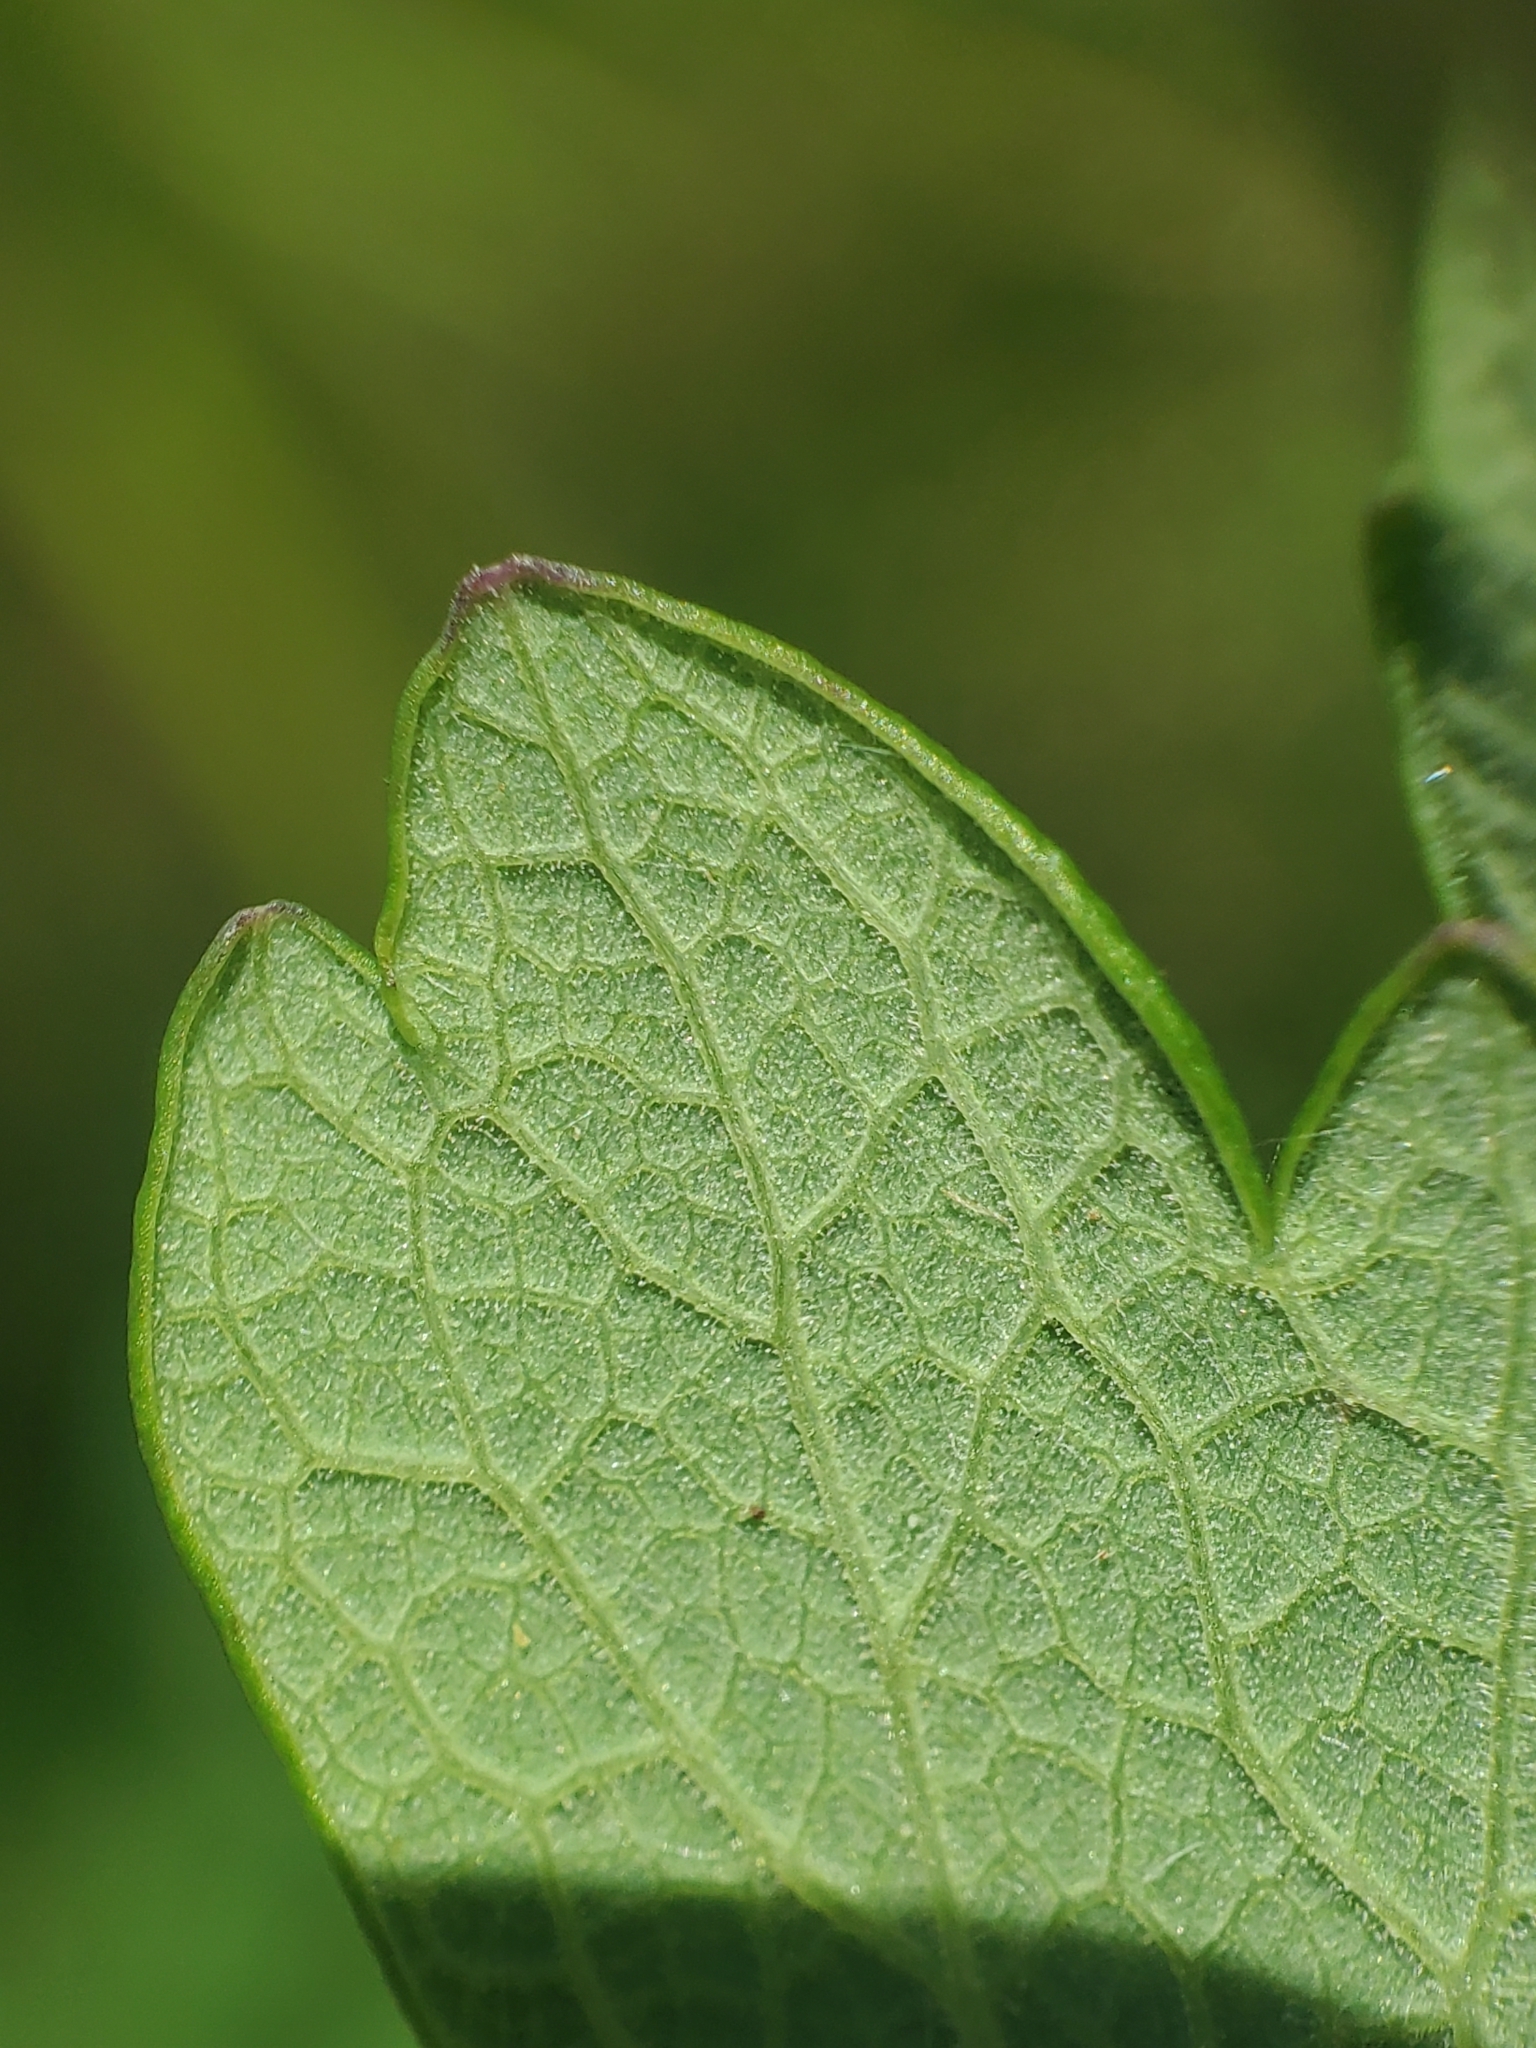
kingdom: Plantae
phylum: Tracheophyta
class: Magnoliopsida
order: Ranunculales
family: Ranunculaceae
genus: Thalictrum
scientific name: Thalictrum revolutum
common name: Waxy meadow-rue
